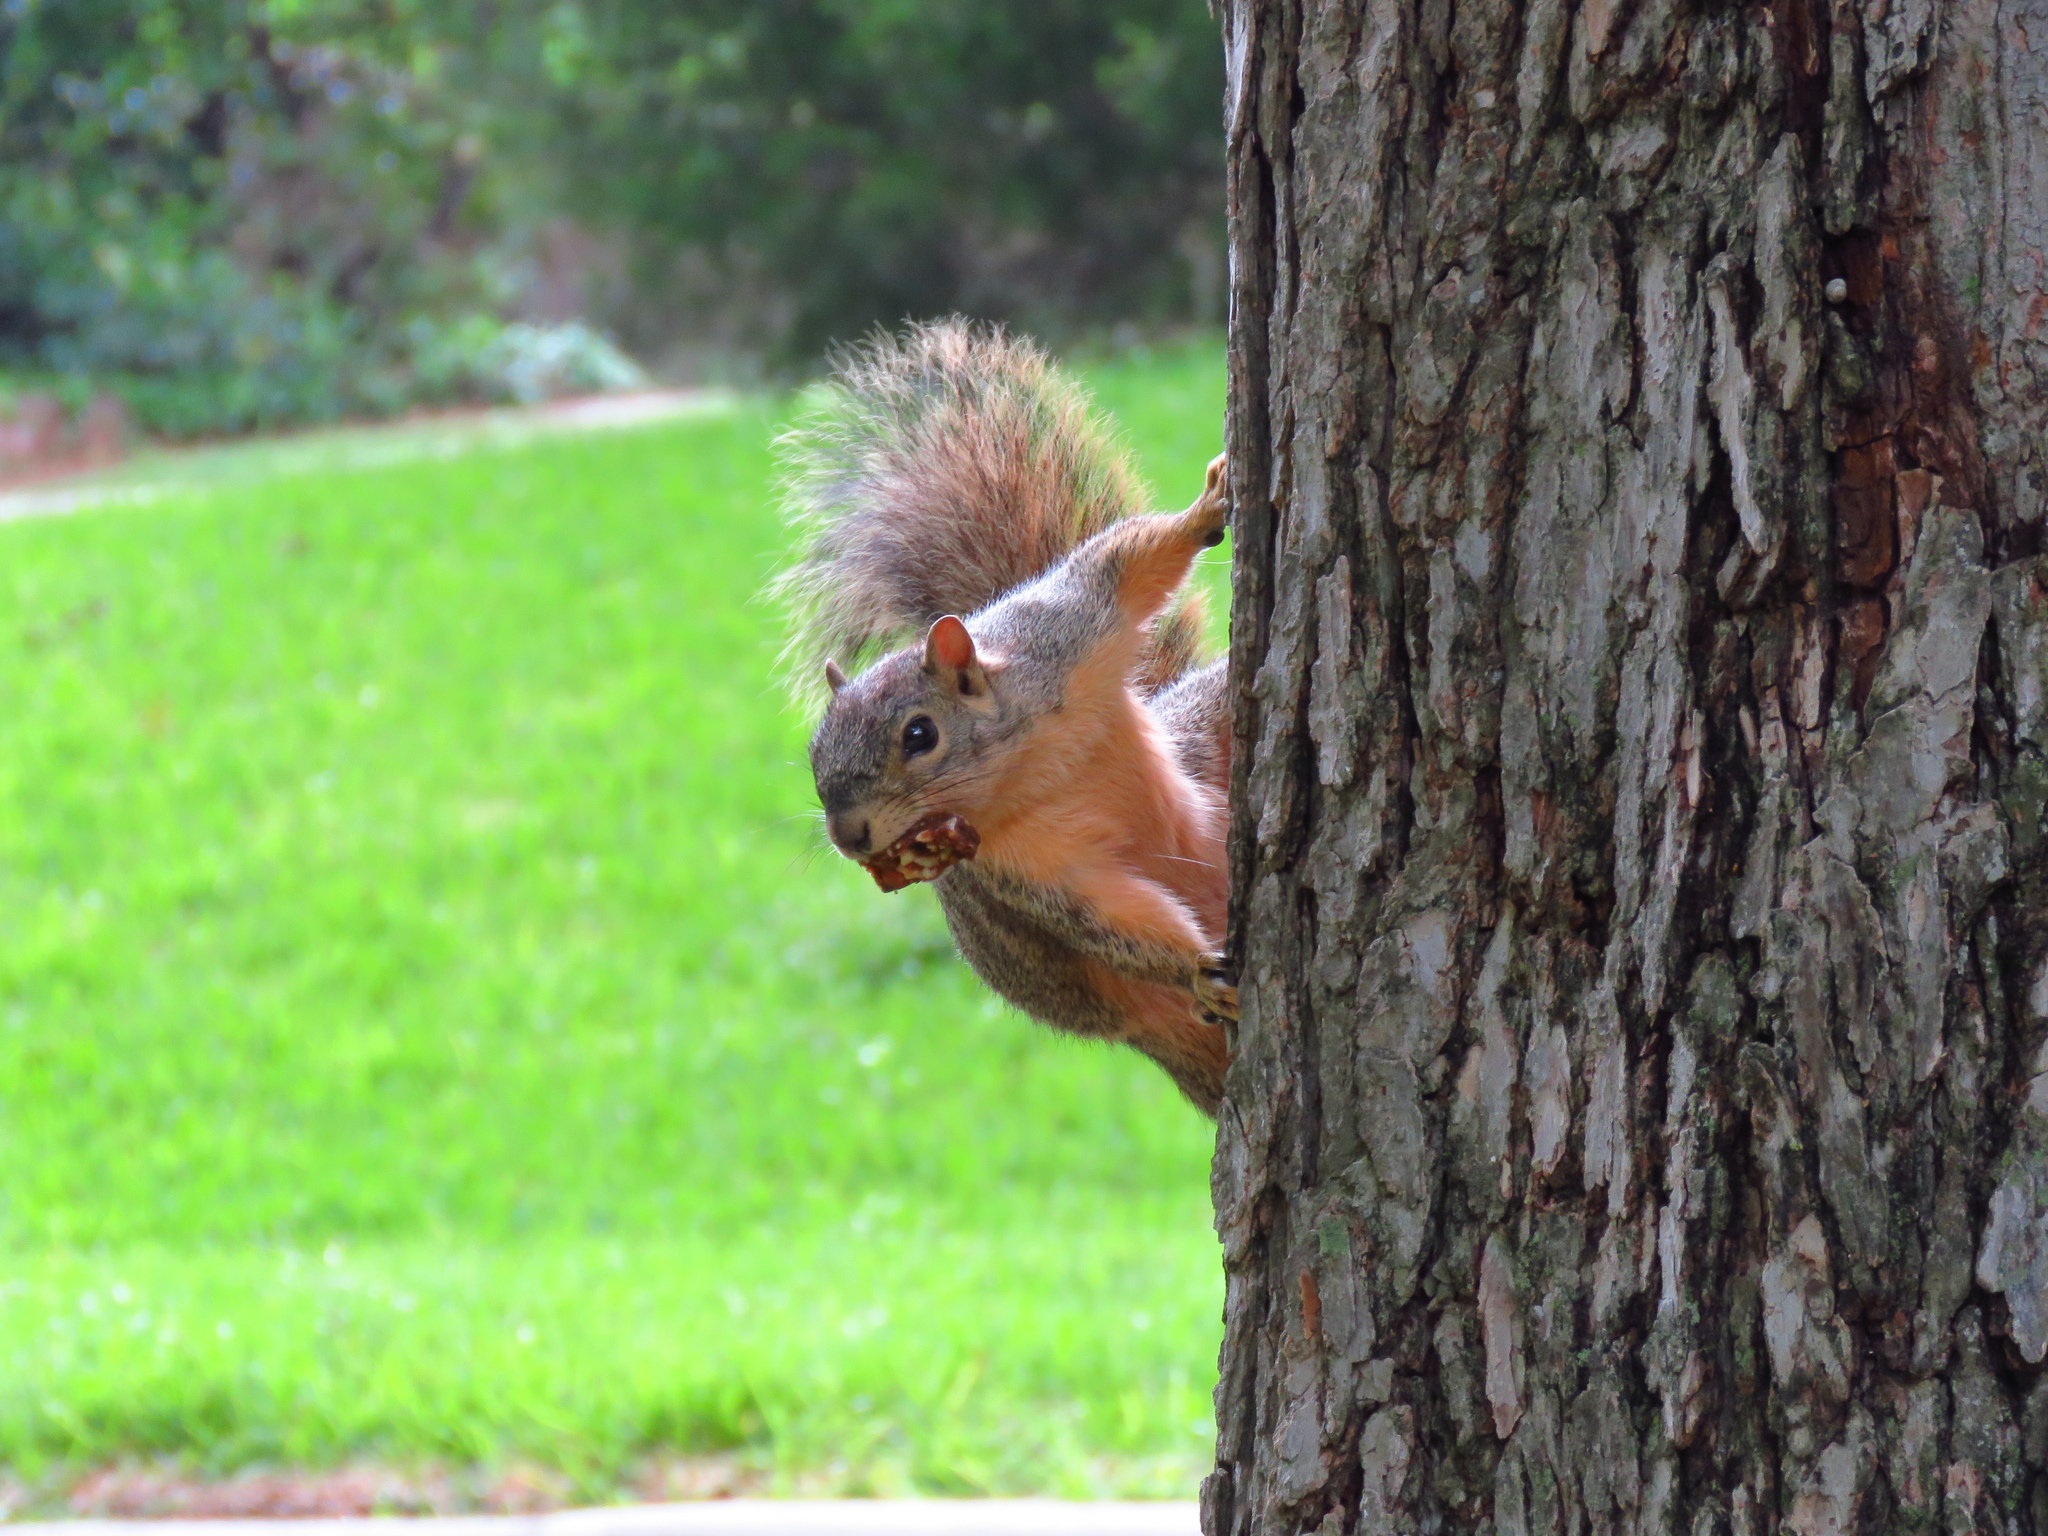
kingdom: Animalia
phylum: Chordata
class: Mammalia
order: Rodentia
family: Sciuridae
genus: Sciurus
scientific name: Sciurus niger
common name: Fox squirrel
